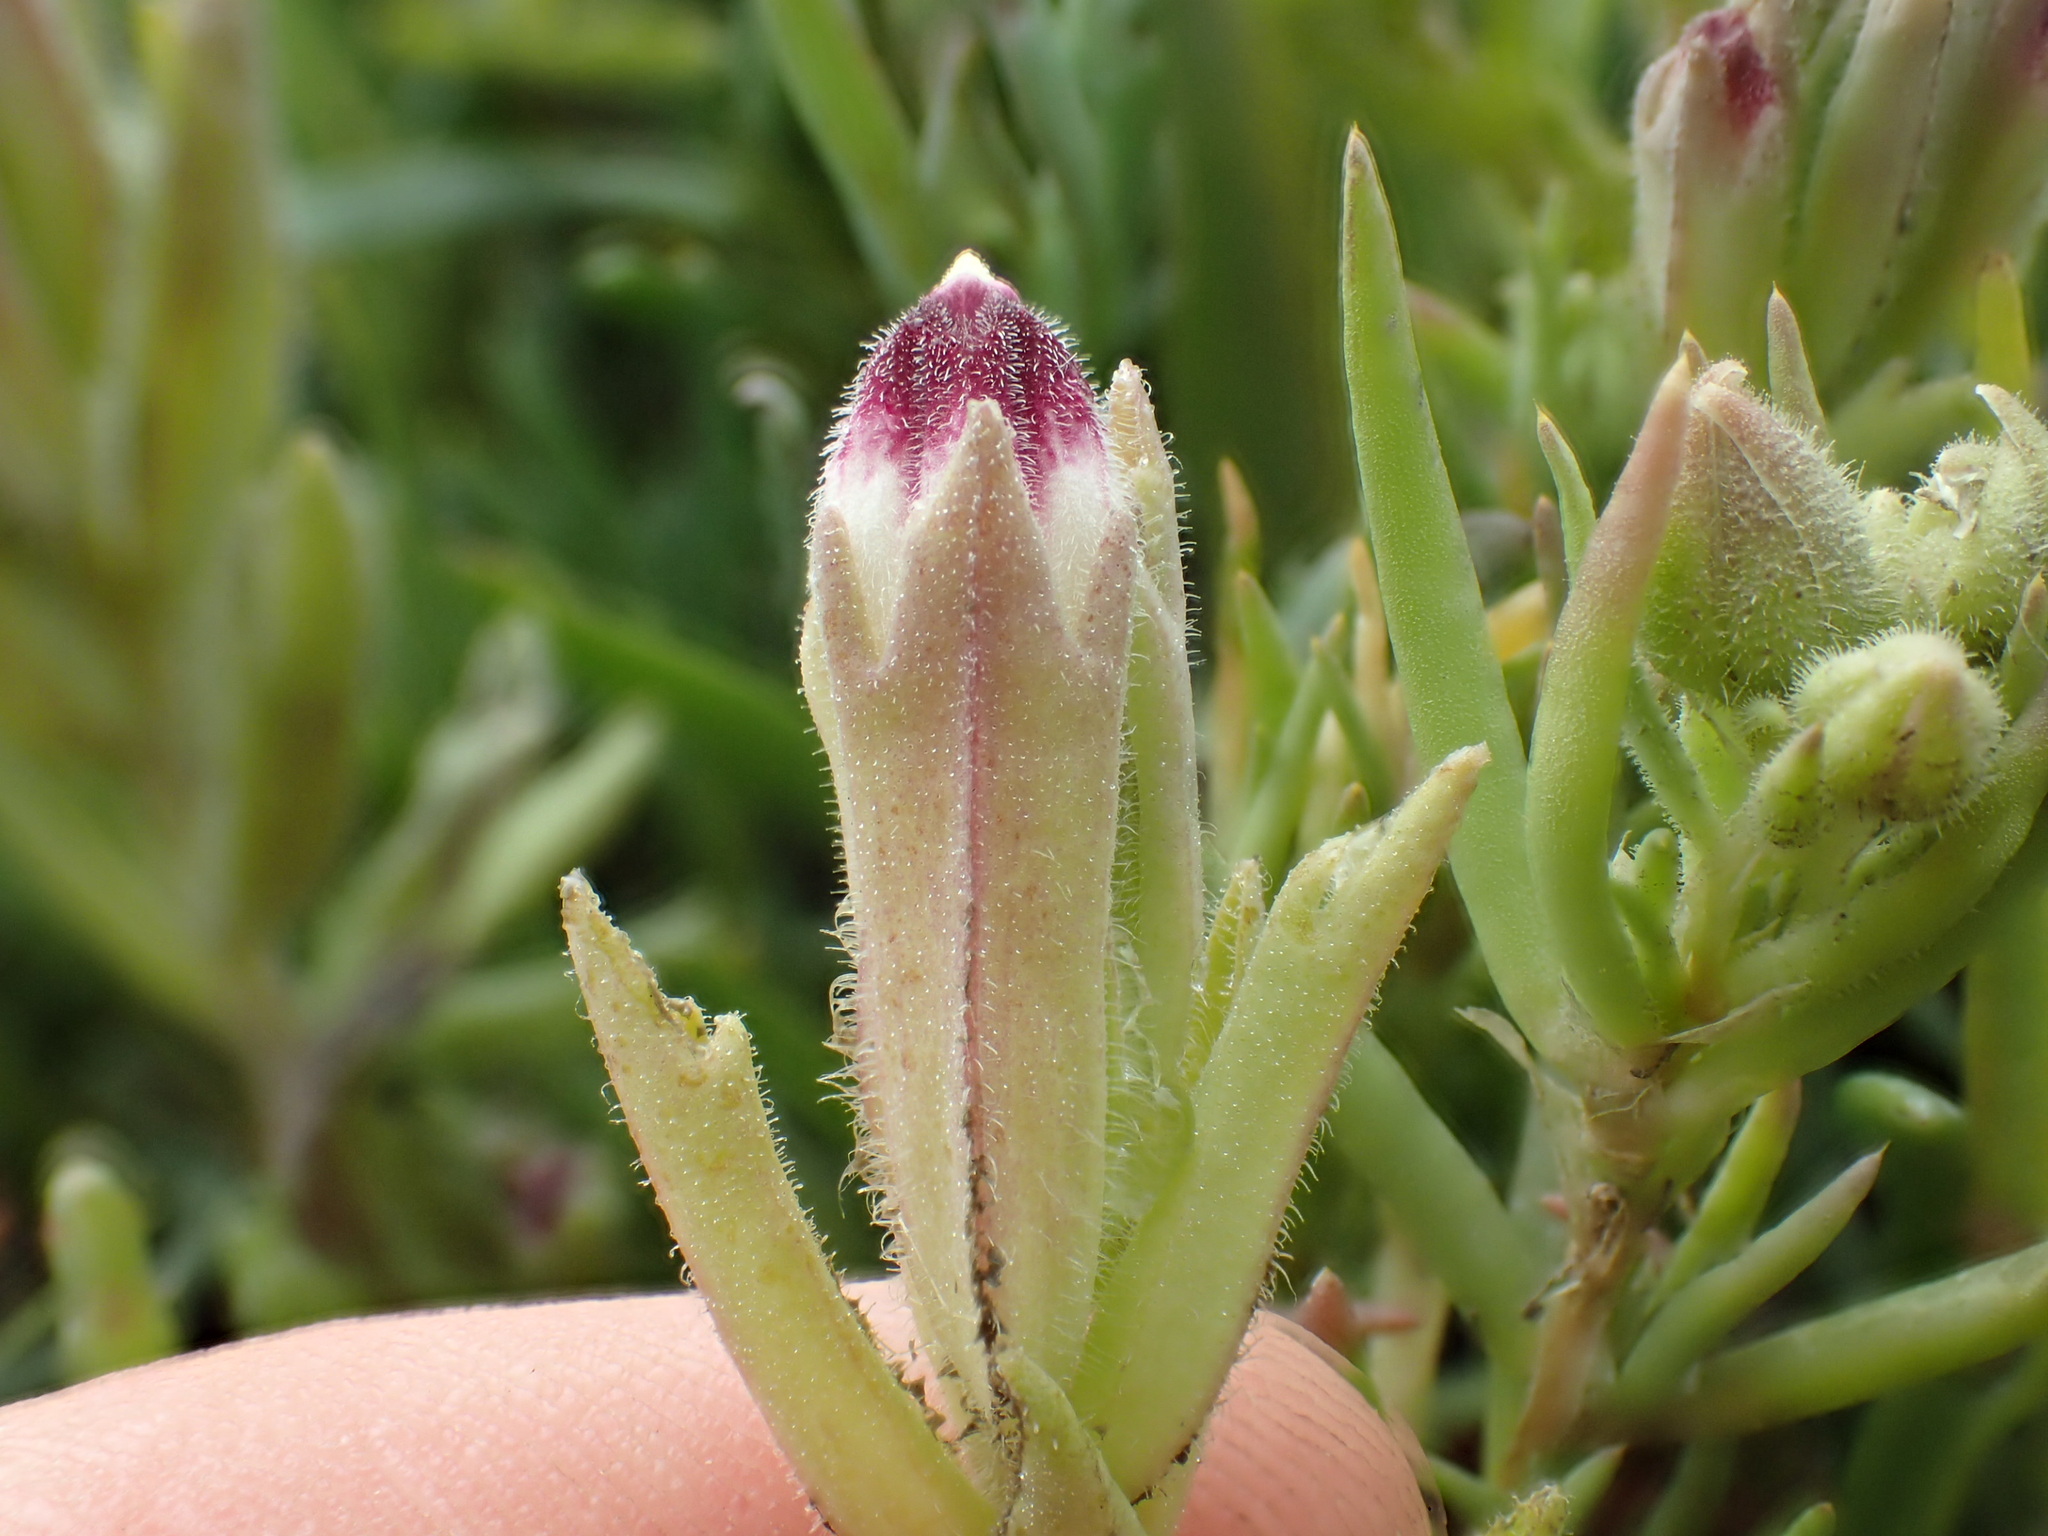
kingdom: Plantae
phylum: Tracheophyta
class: Magnoliopsida
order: Lamiales
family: Orobanchaceae
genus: Chloropyron
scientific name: Chloropyron maritimum
